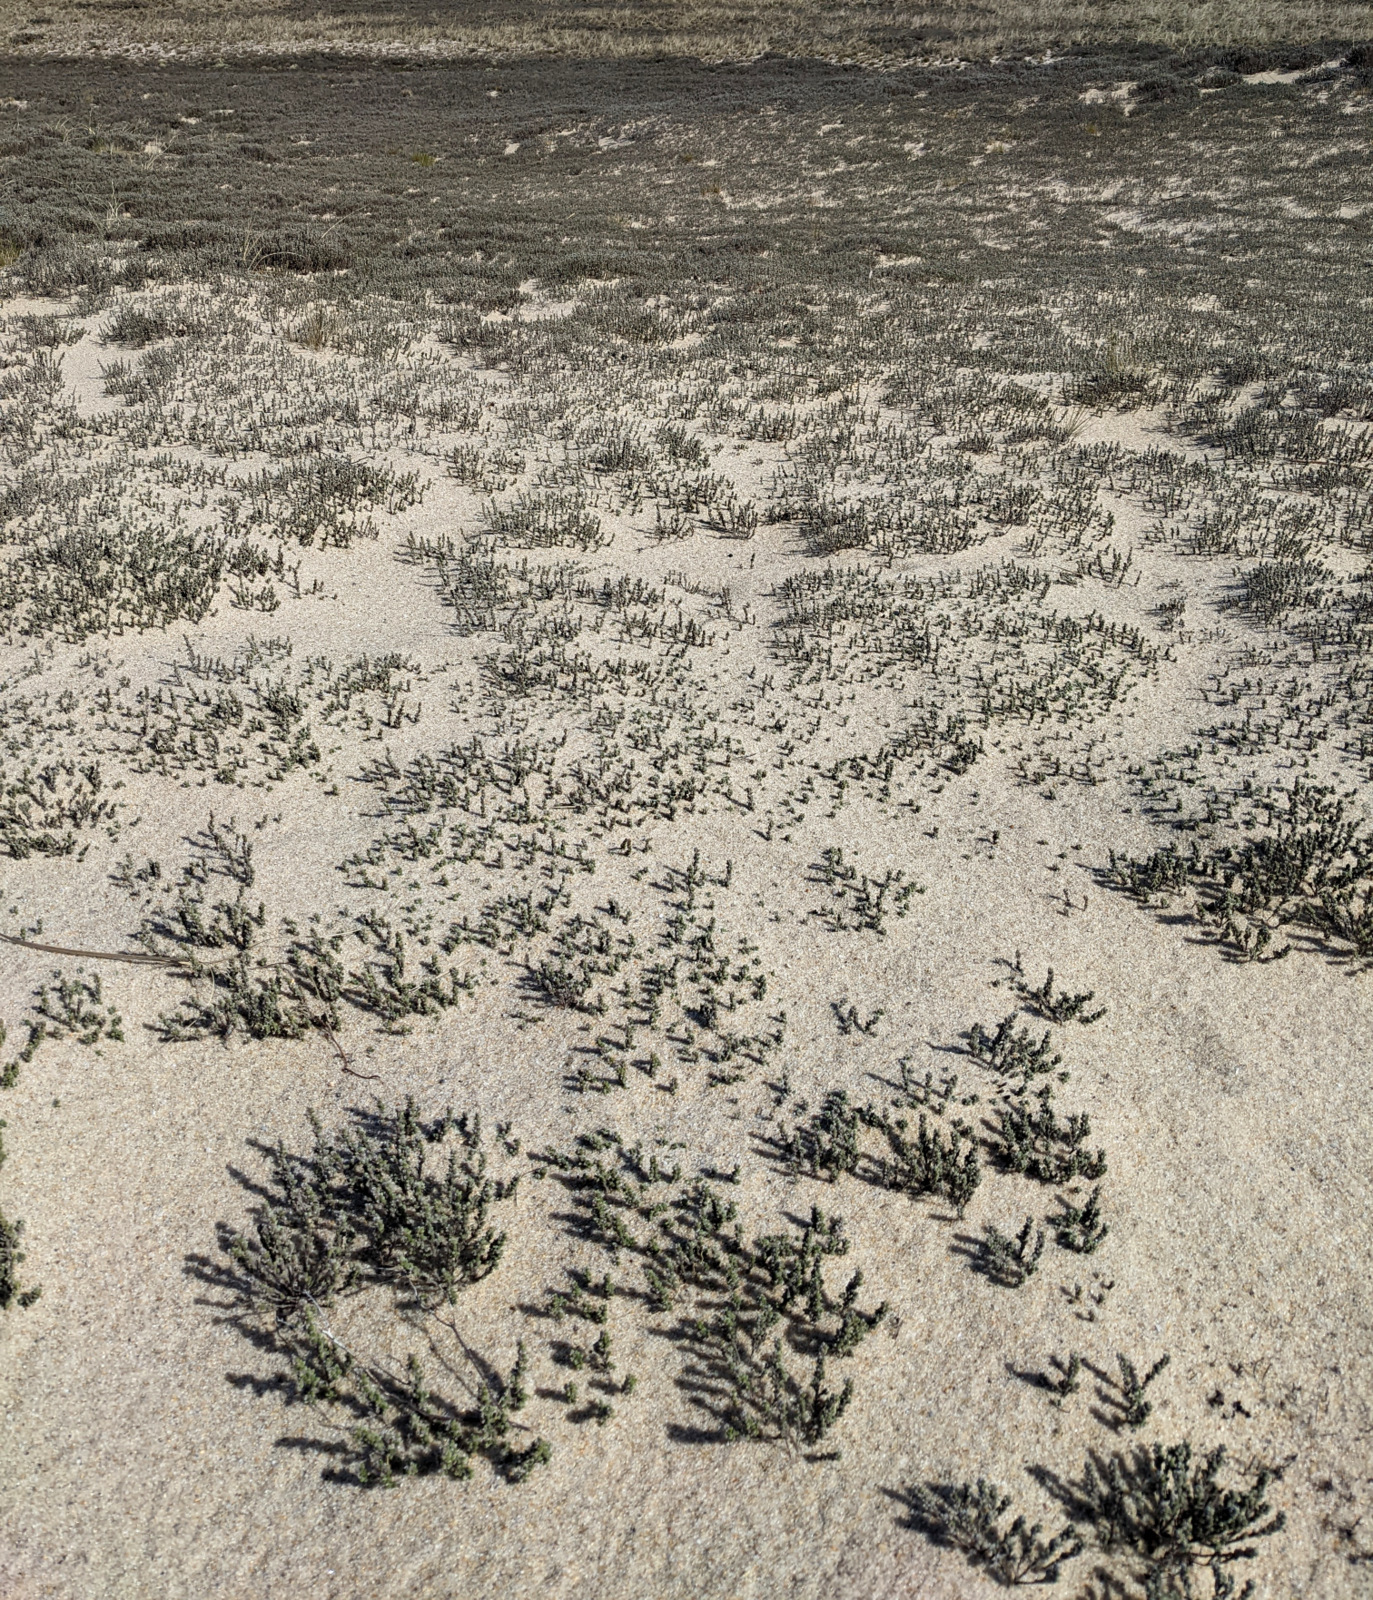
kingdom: Plantae
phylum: Tracheophyta
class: Magnoliopsida
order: Malvales
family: Cistaceae
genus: Hudsonia
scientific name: Hudsonia tomentosa
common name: Beach-heath
